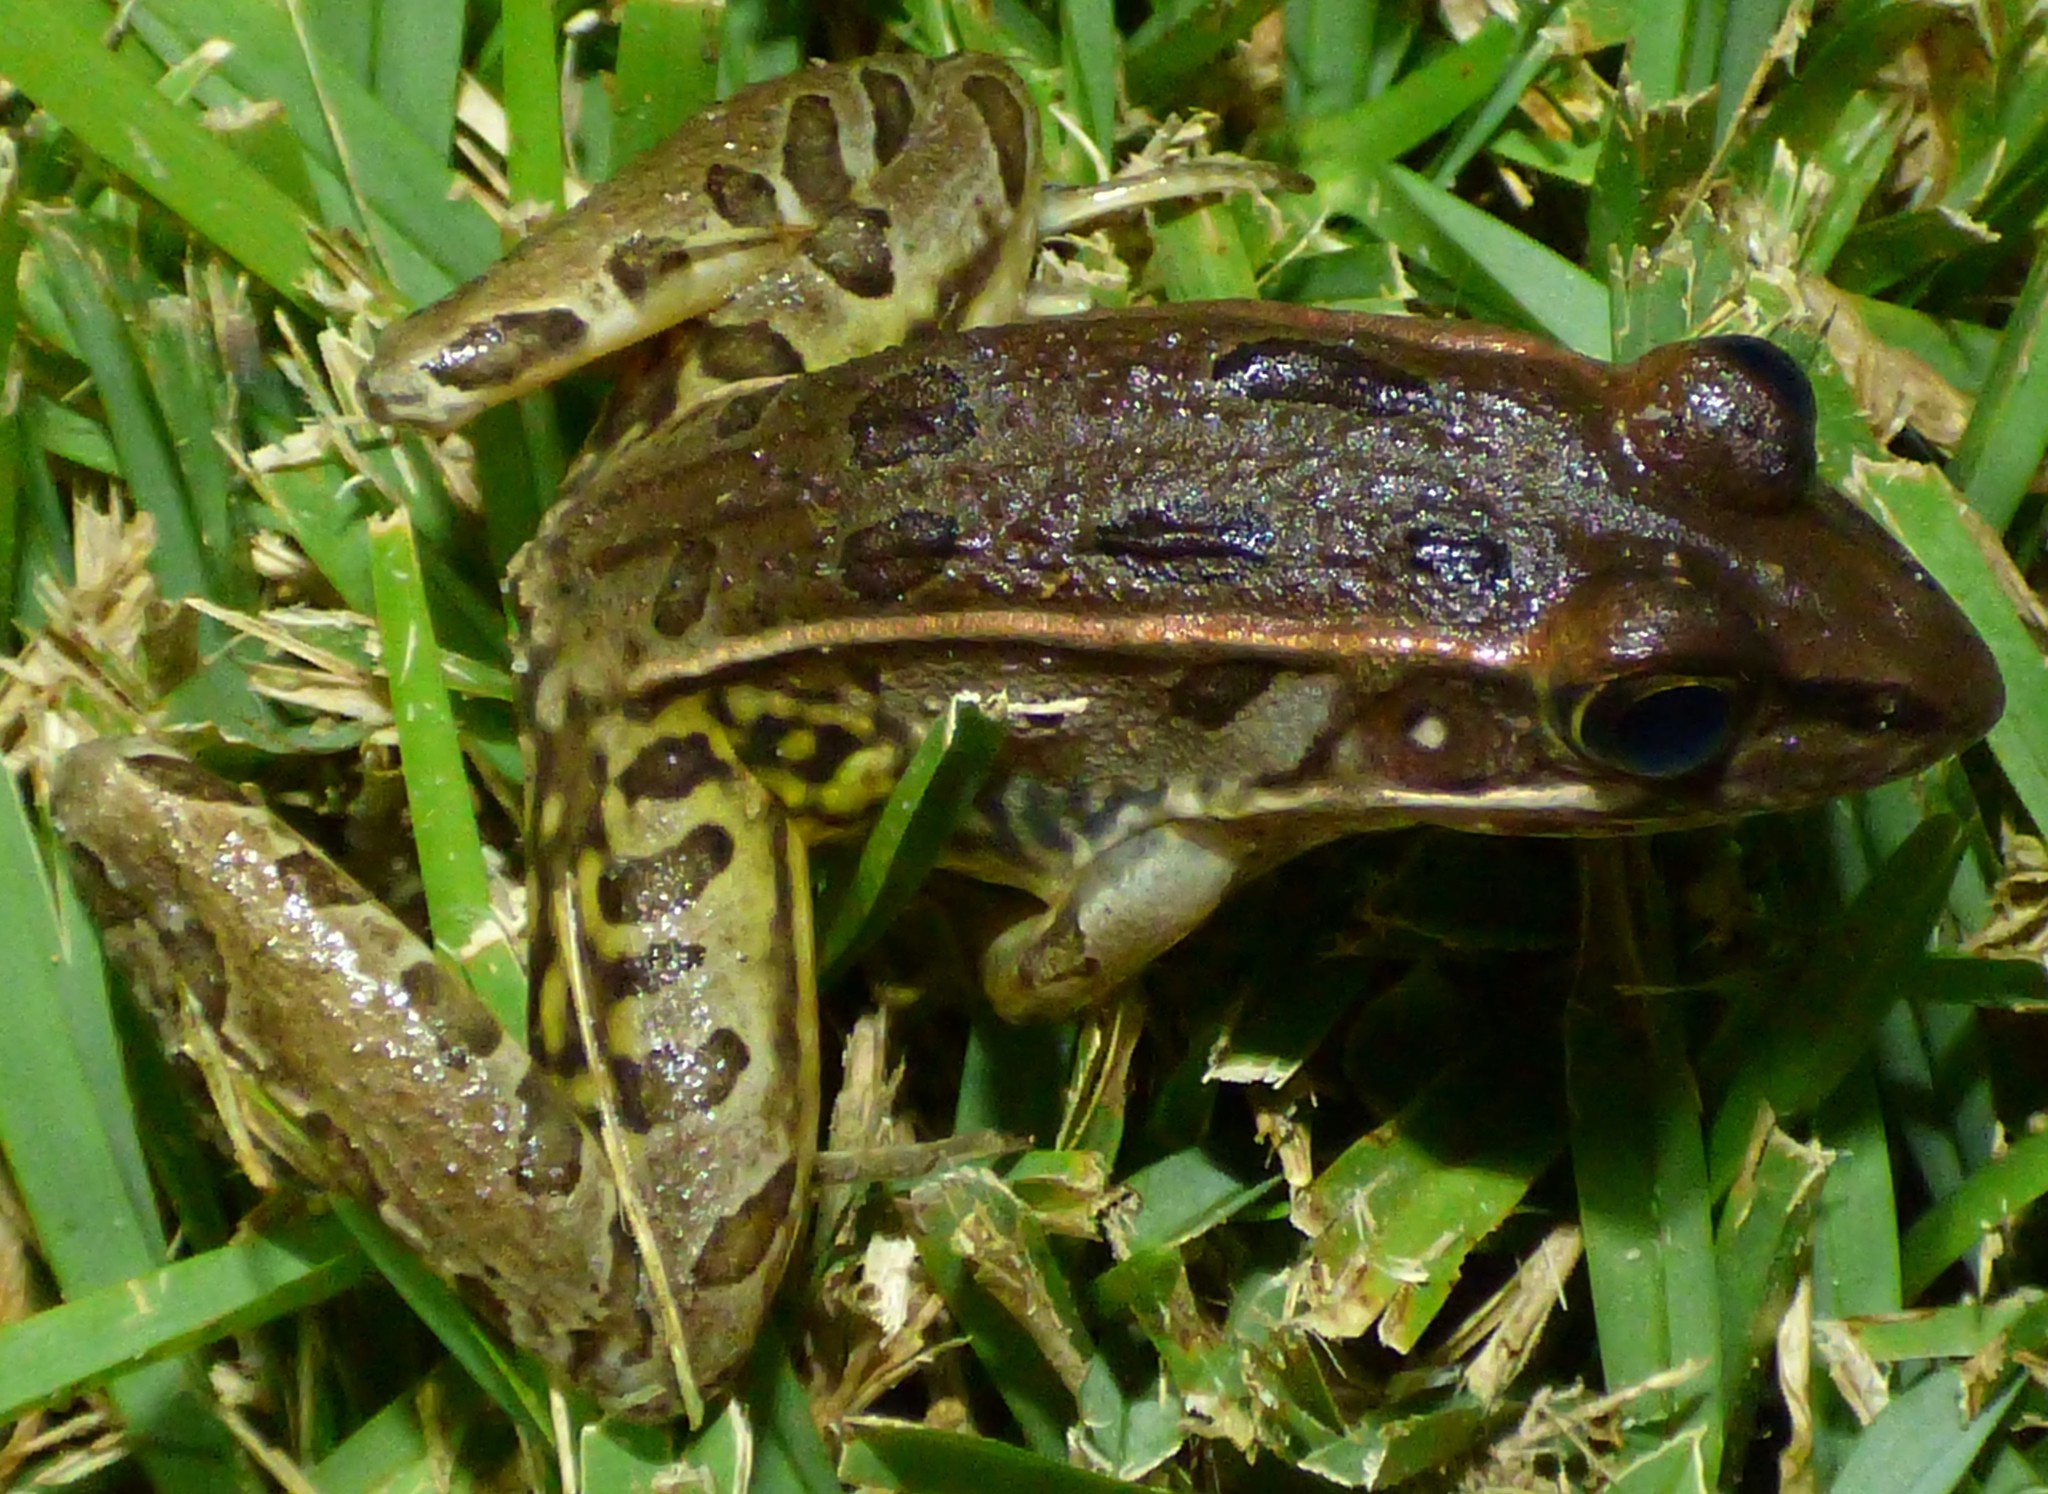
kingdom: Animalia
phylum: Chordata
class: Amphibia
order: Anura
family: Ranidae
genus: Lithobates
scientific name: Lithobates sphenocephalus
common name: Southern leopard frog
